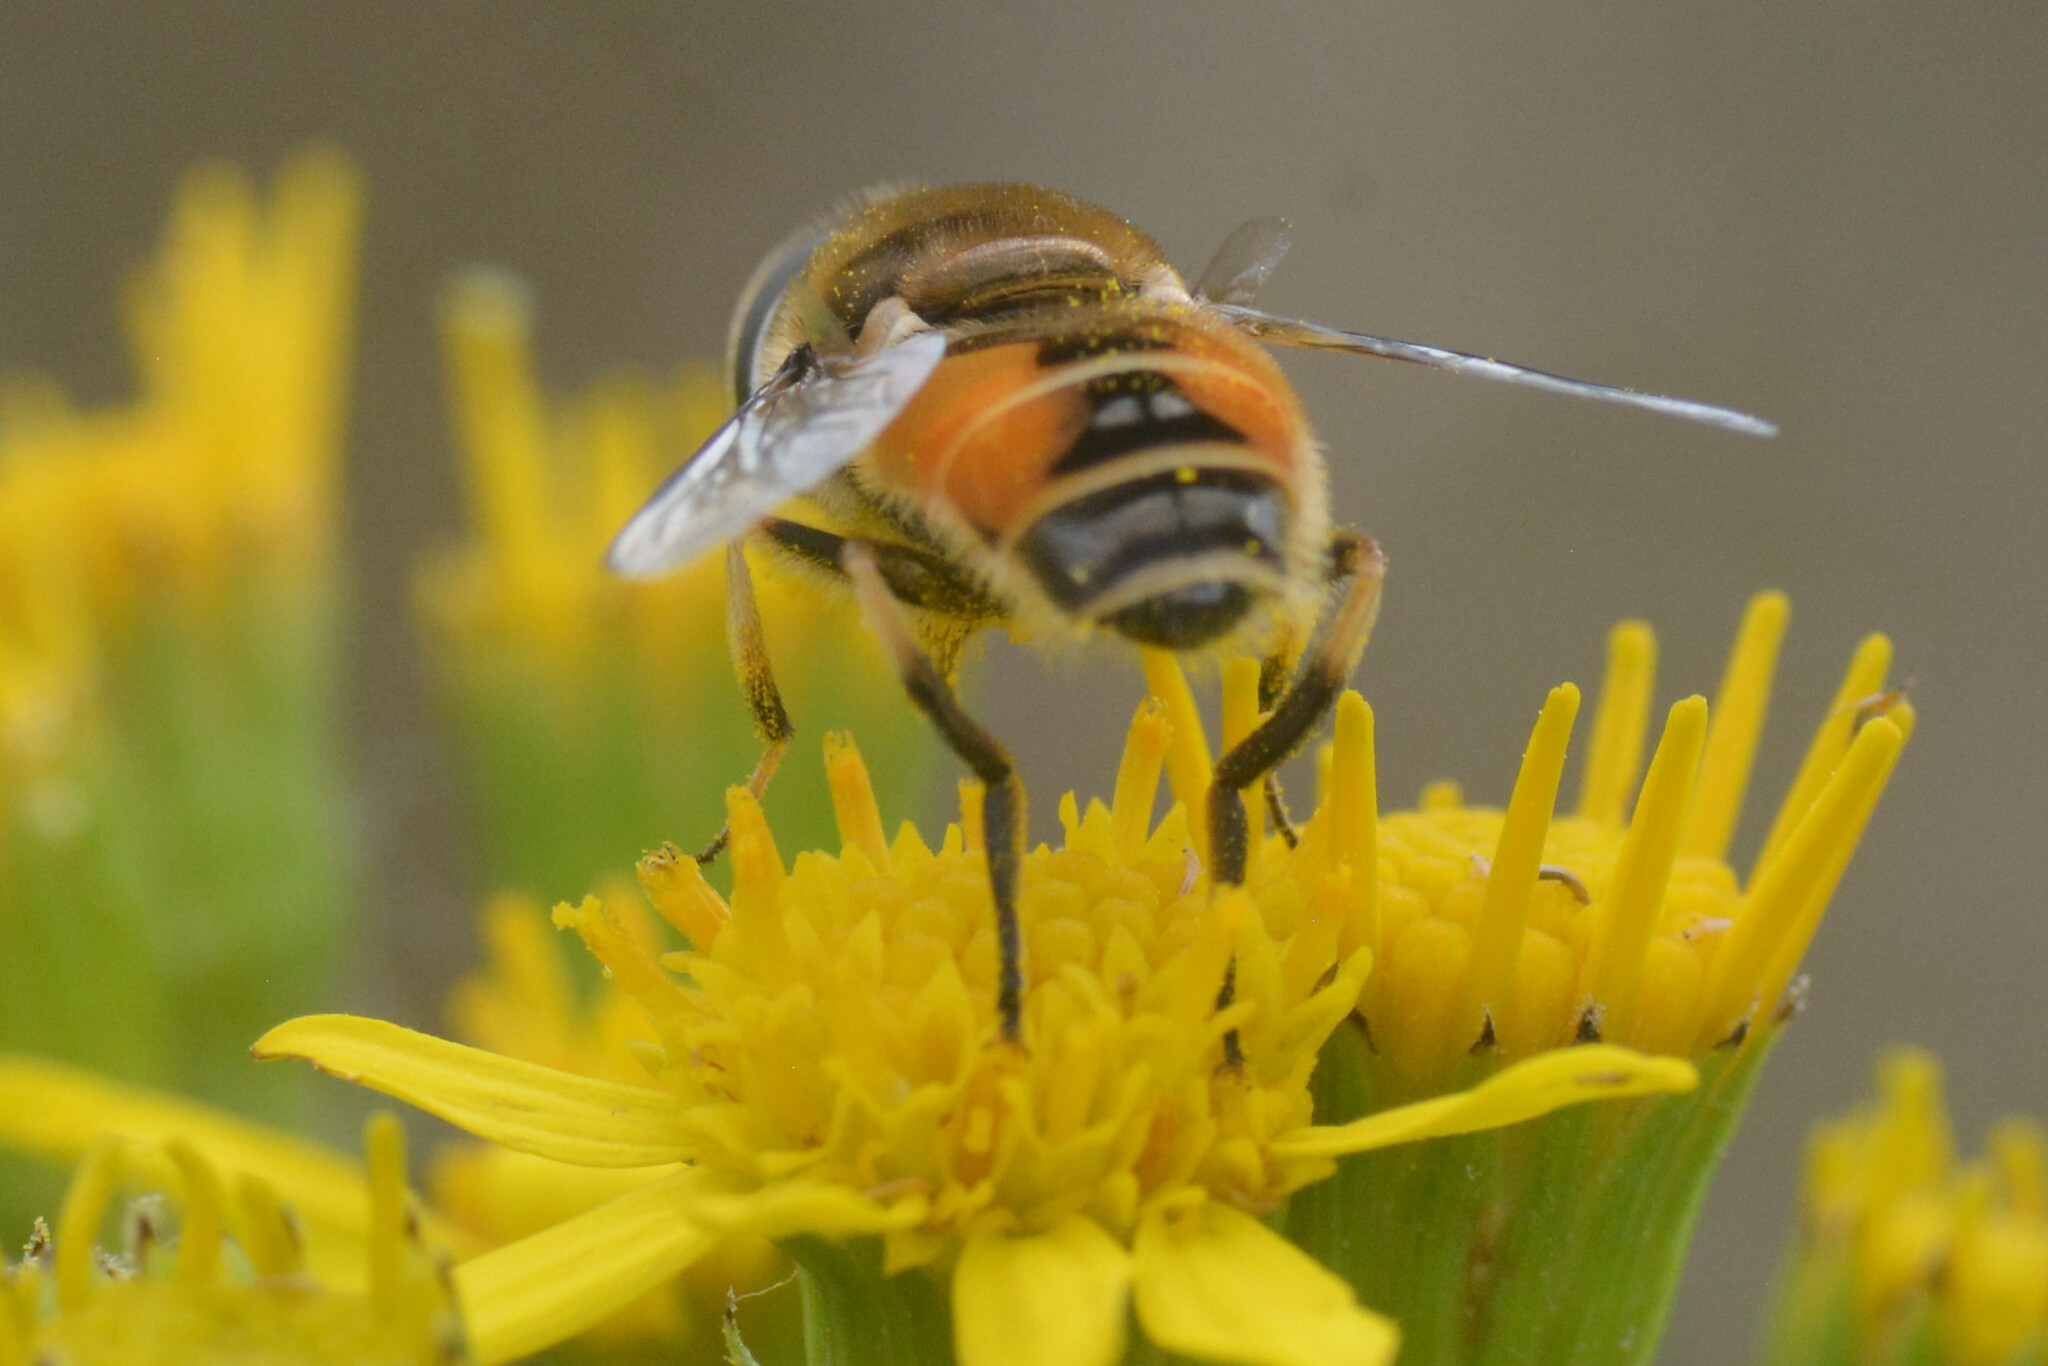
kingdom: Animalia
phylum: Arthropoda
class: Insecta
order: Diptera
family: Syrphidae
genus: Eristalis
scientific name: Eristalis arbustorum
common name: Hover fly
